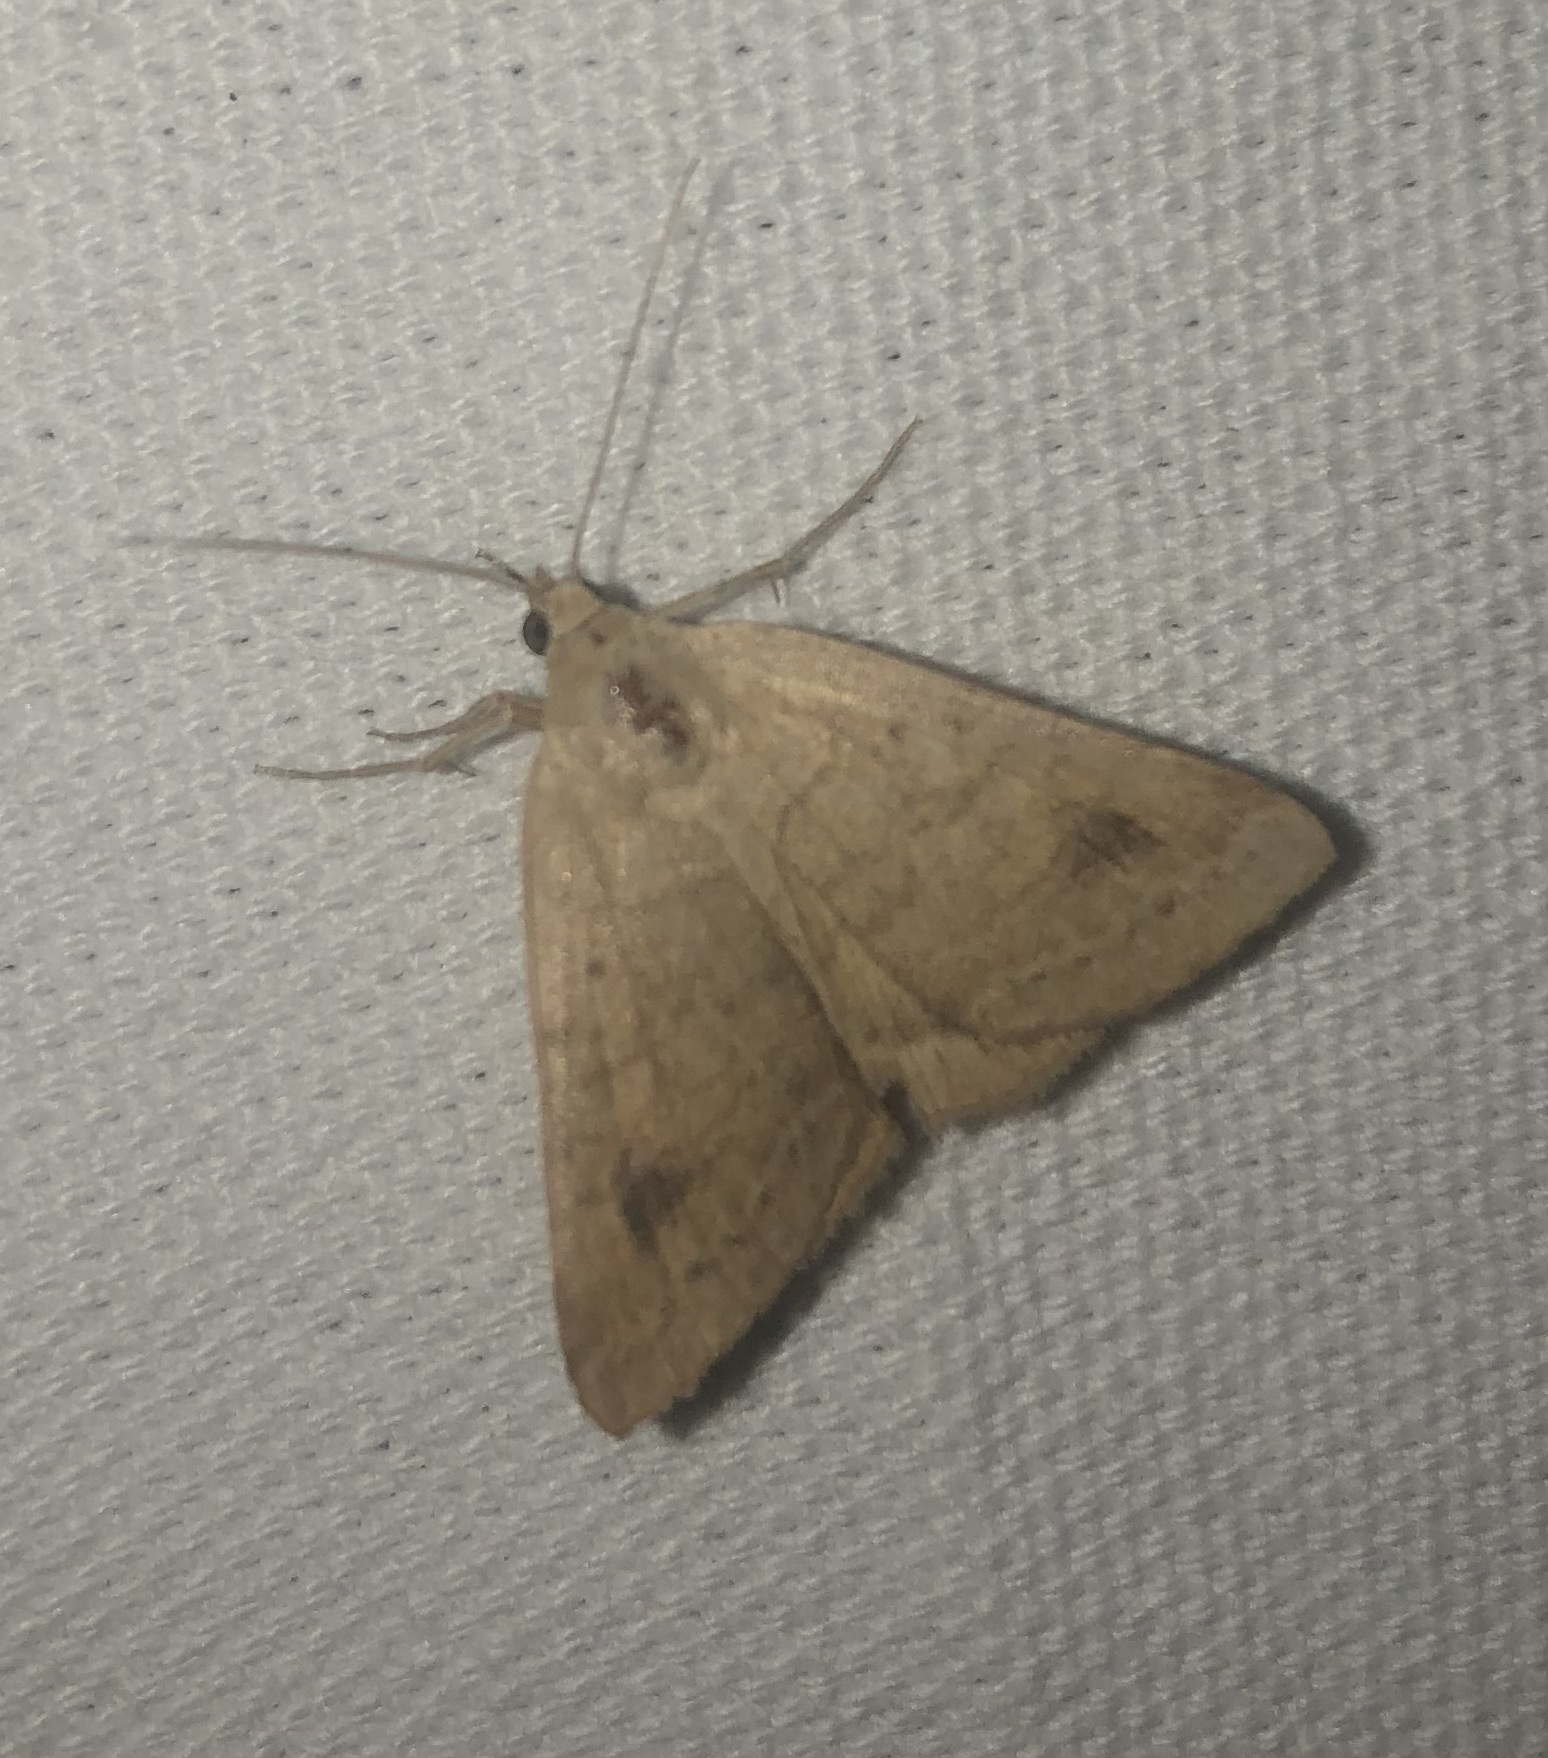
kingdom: Animalia
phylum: Arthropoda
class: Insecta
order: Lepidoptera
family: Erebidae
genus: Caenurgia
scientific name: Caenurgia chloropha
